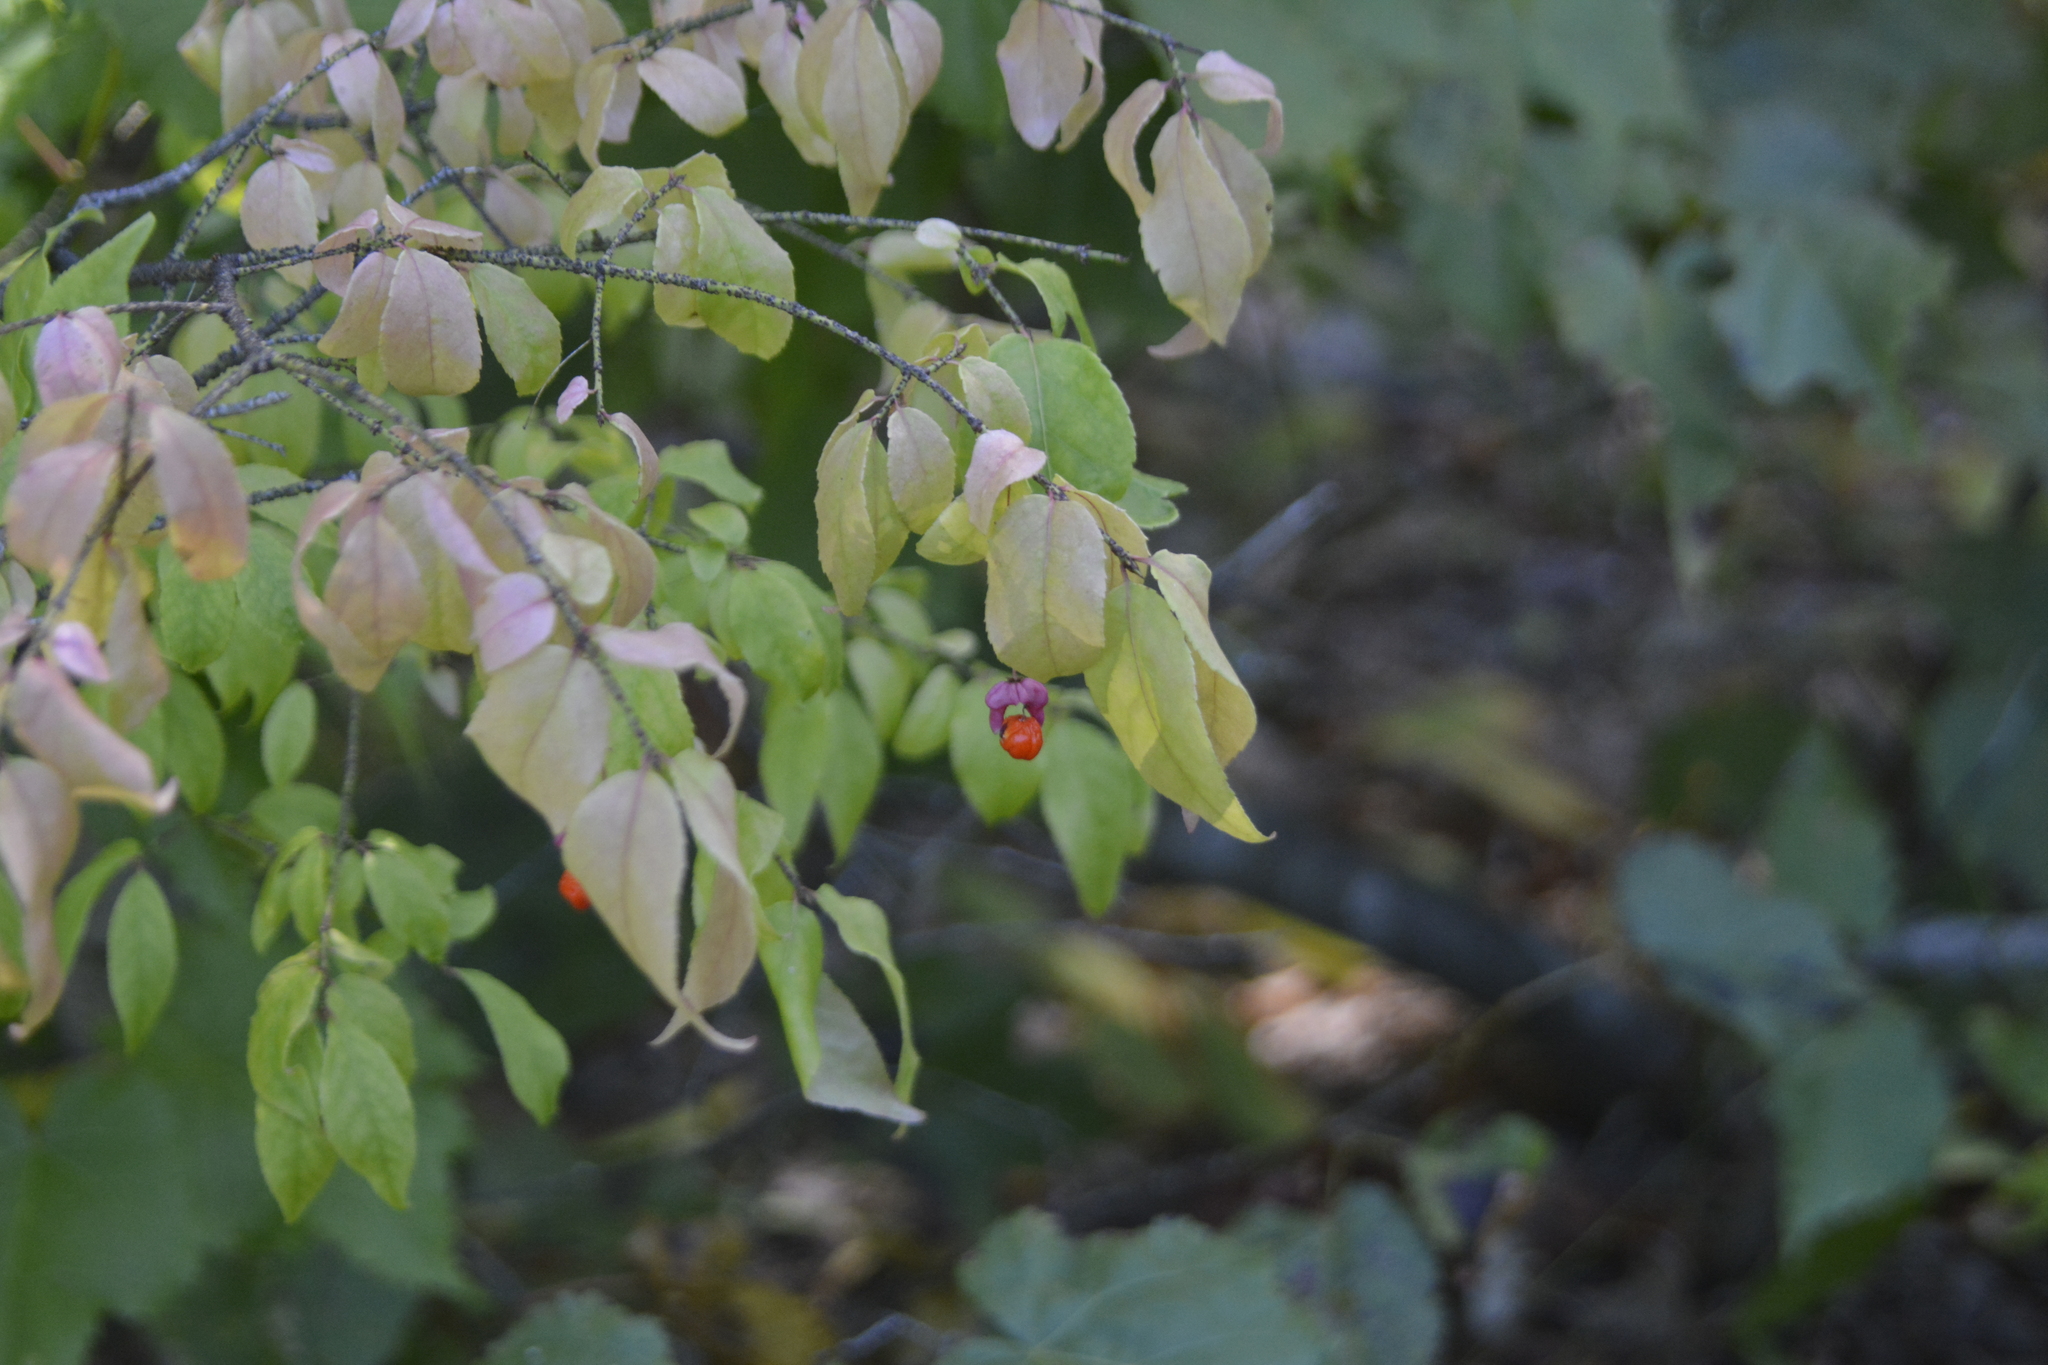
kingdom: Plantae
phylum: Tracheophyta
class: Magnoliopsida
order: Celastrales
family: Celastraceae
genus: Euonymus
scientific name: Euonymus verrucosus
